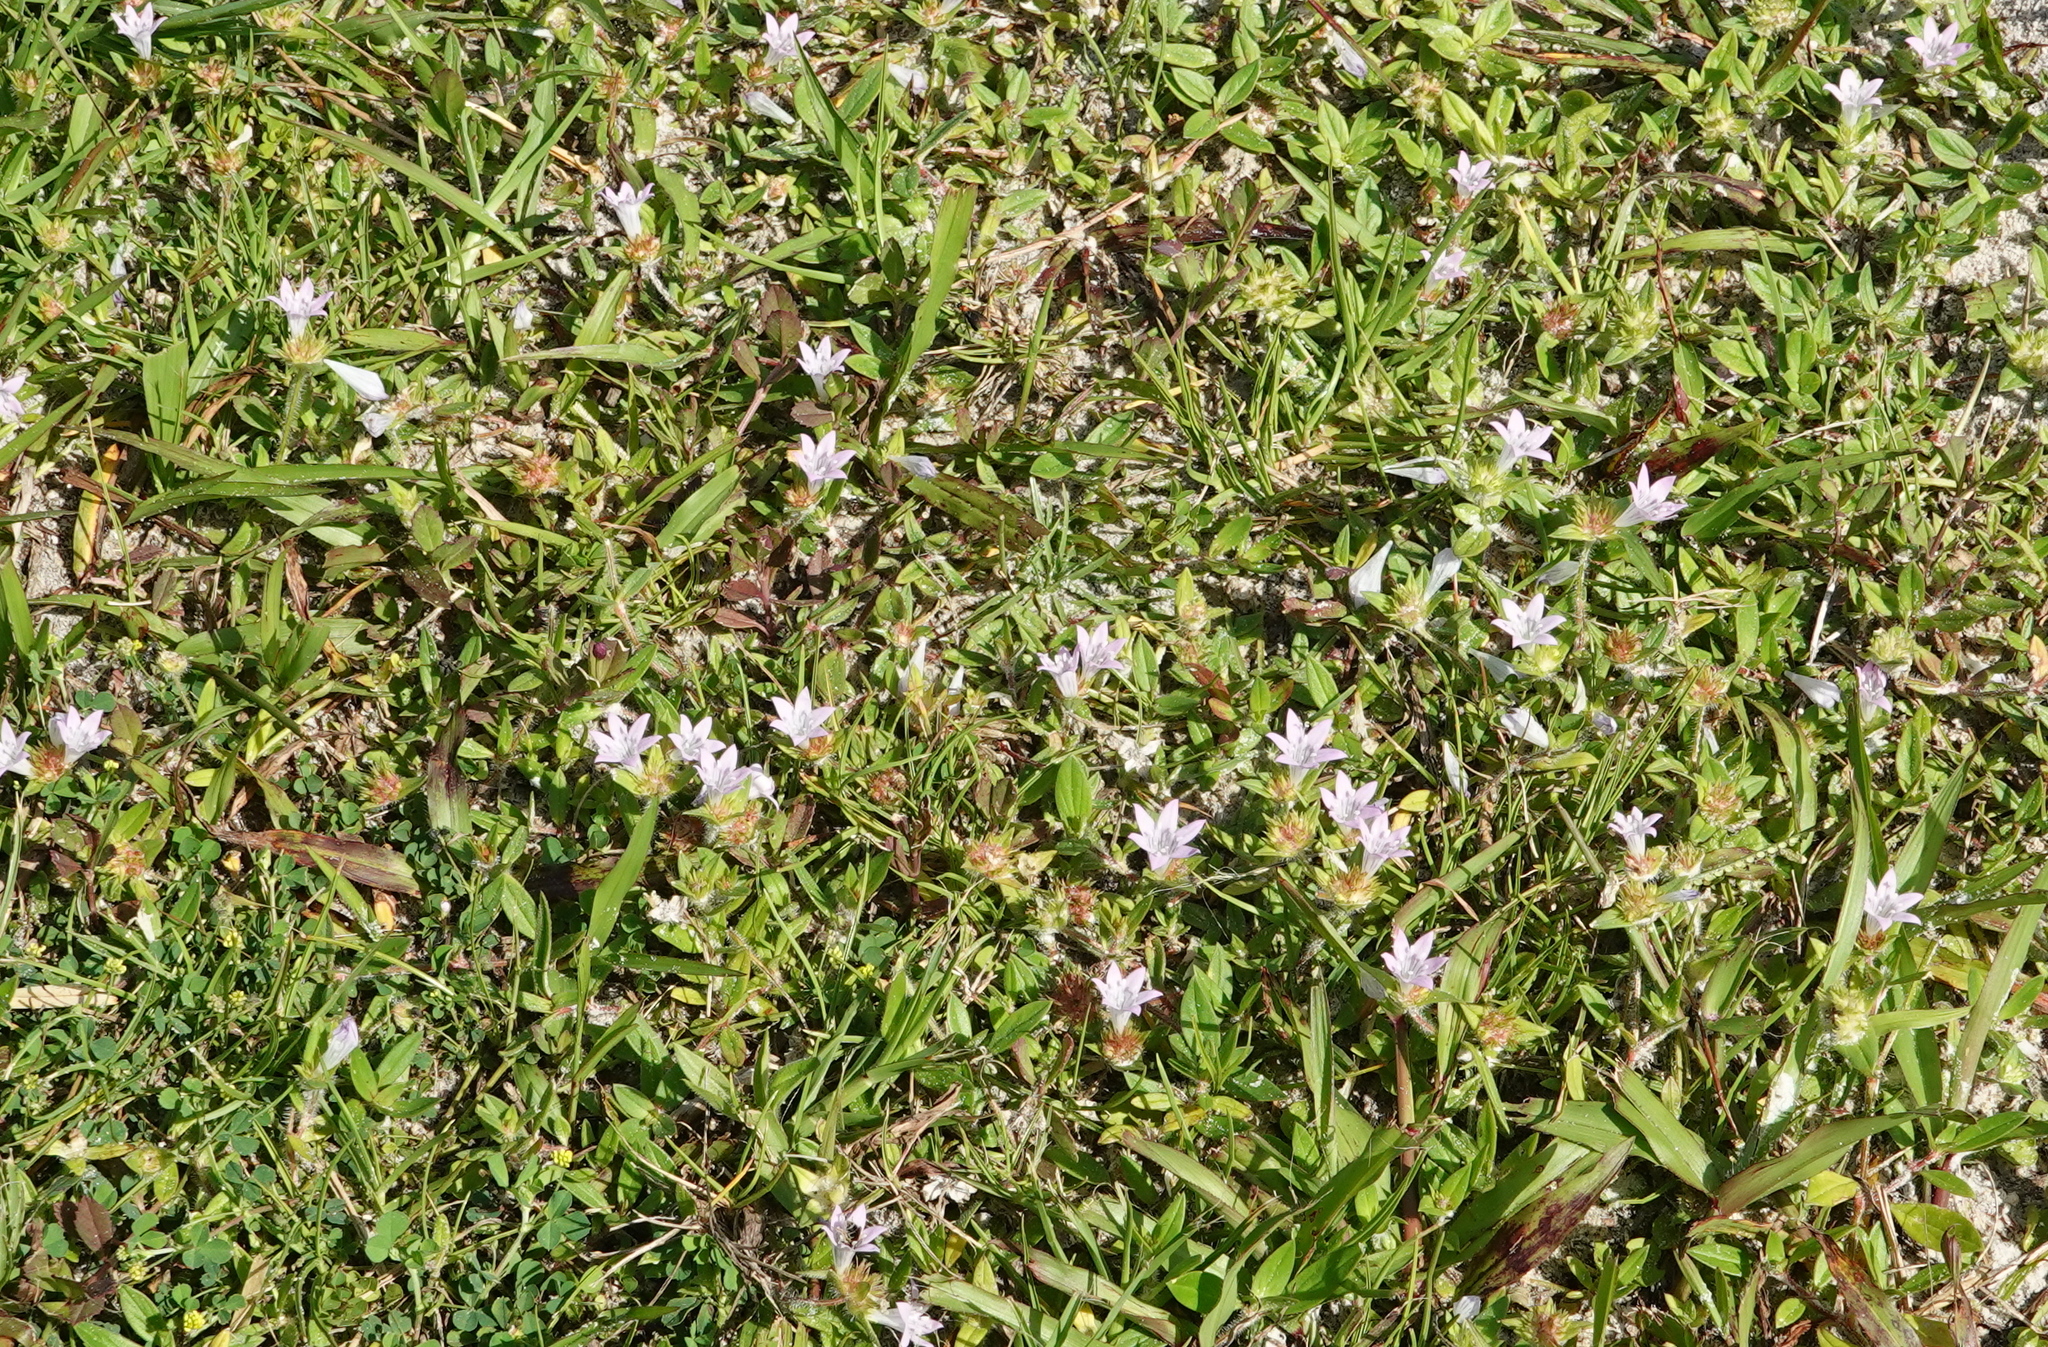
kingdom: Plantae
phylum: Tracheophyta
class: Magnoliopsida
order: Gentianales
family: Rubiaceae
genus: Richardia
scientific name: Richardia grandiflora
